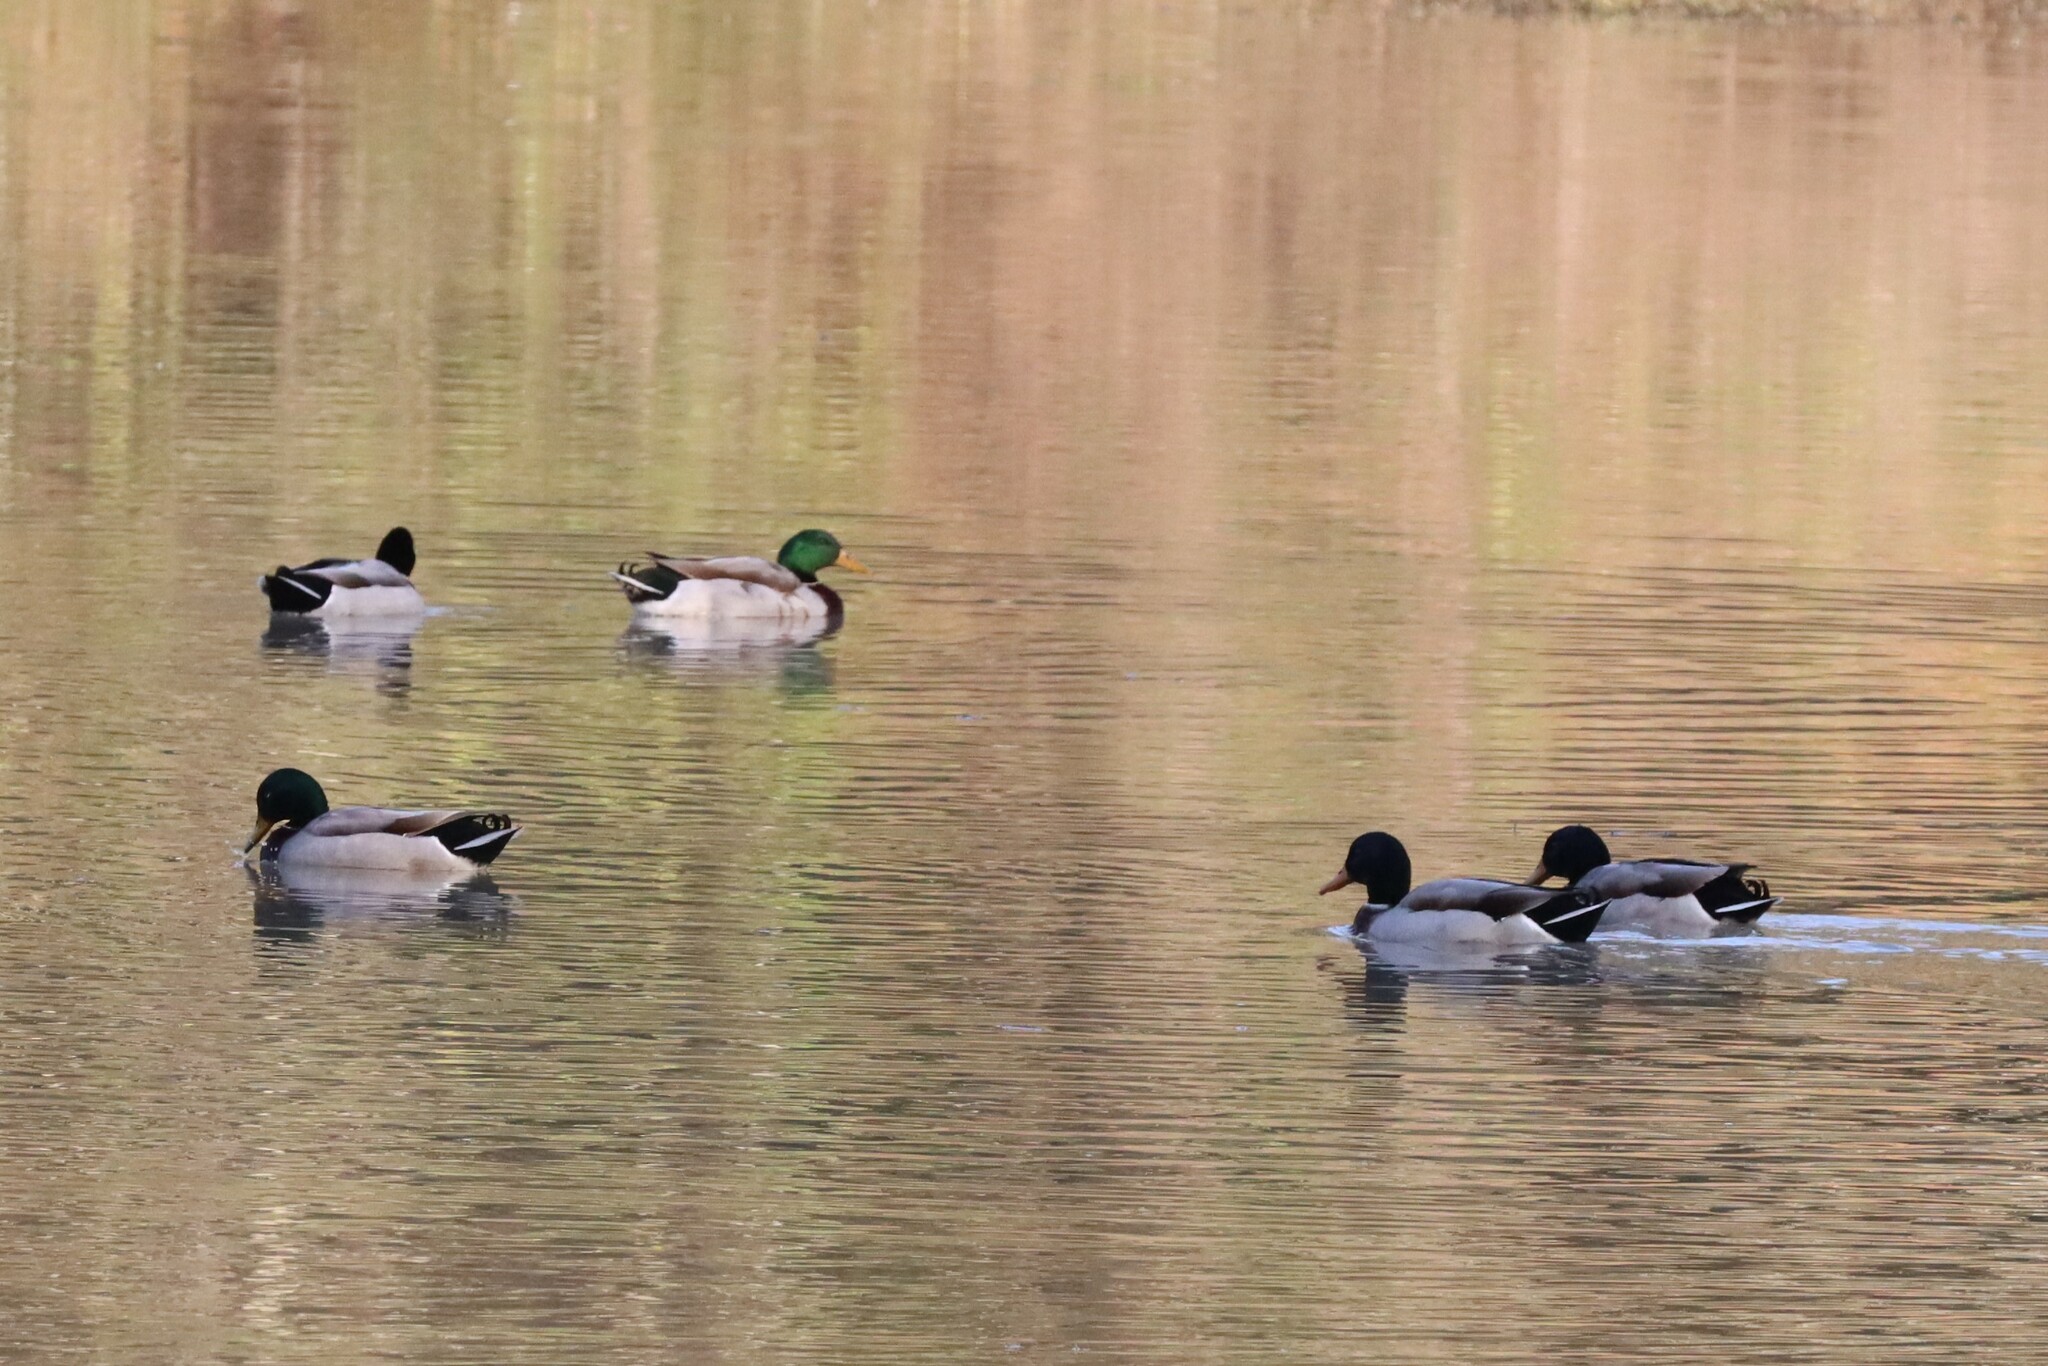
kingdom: Animalia
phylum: Chordata
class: Aves
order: Anseriformes
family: Anatidae
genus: Anas
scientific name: Anas platyrhynchos
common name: Mallard
